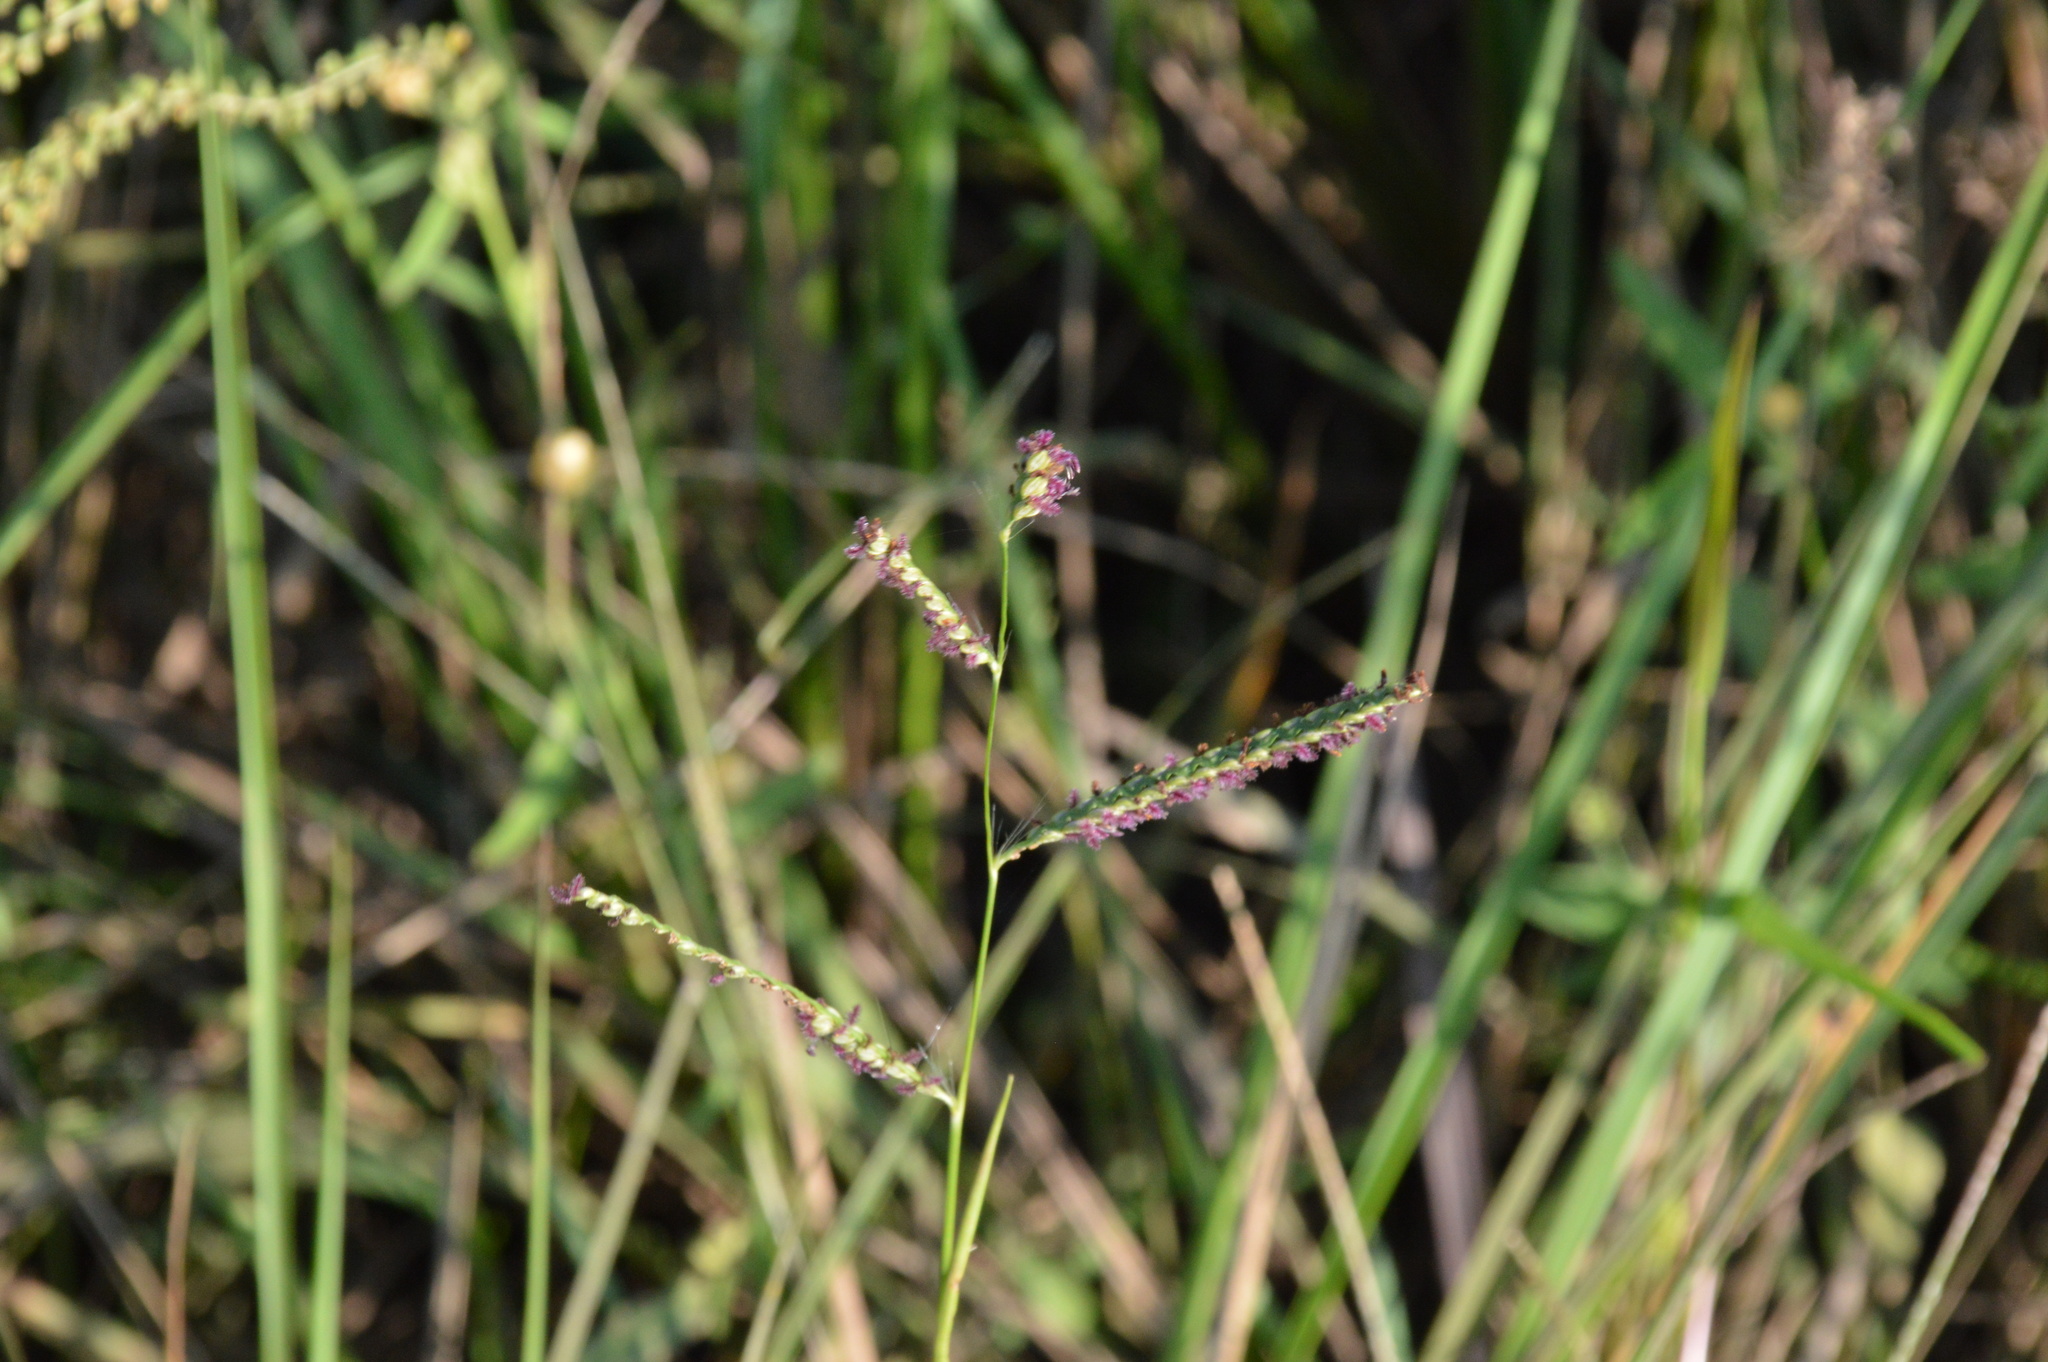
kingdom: Plantae
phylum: Tracheophyta
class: Liliopsida
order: Poales
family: Poaceae
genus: Paspalum
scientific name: Paspalum plicatulum
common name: Top paspalum
